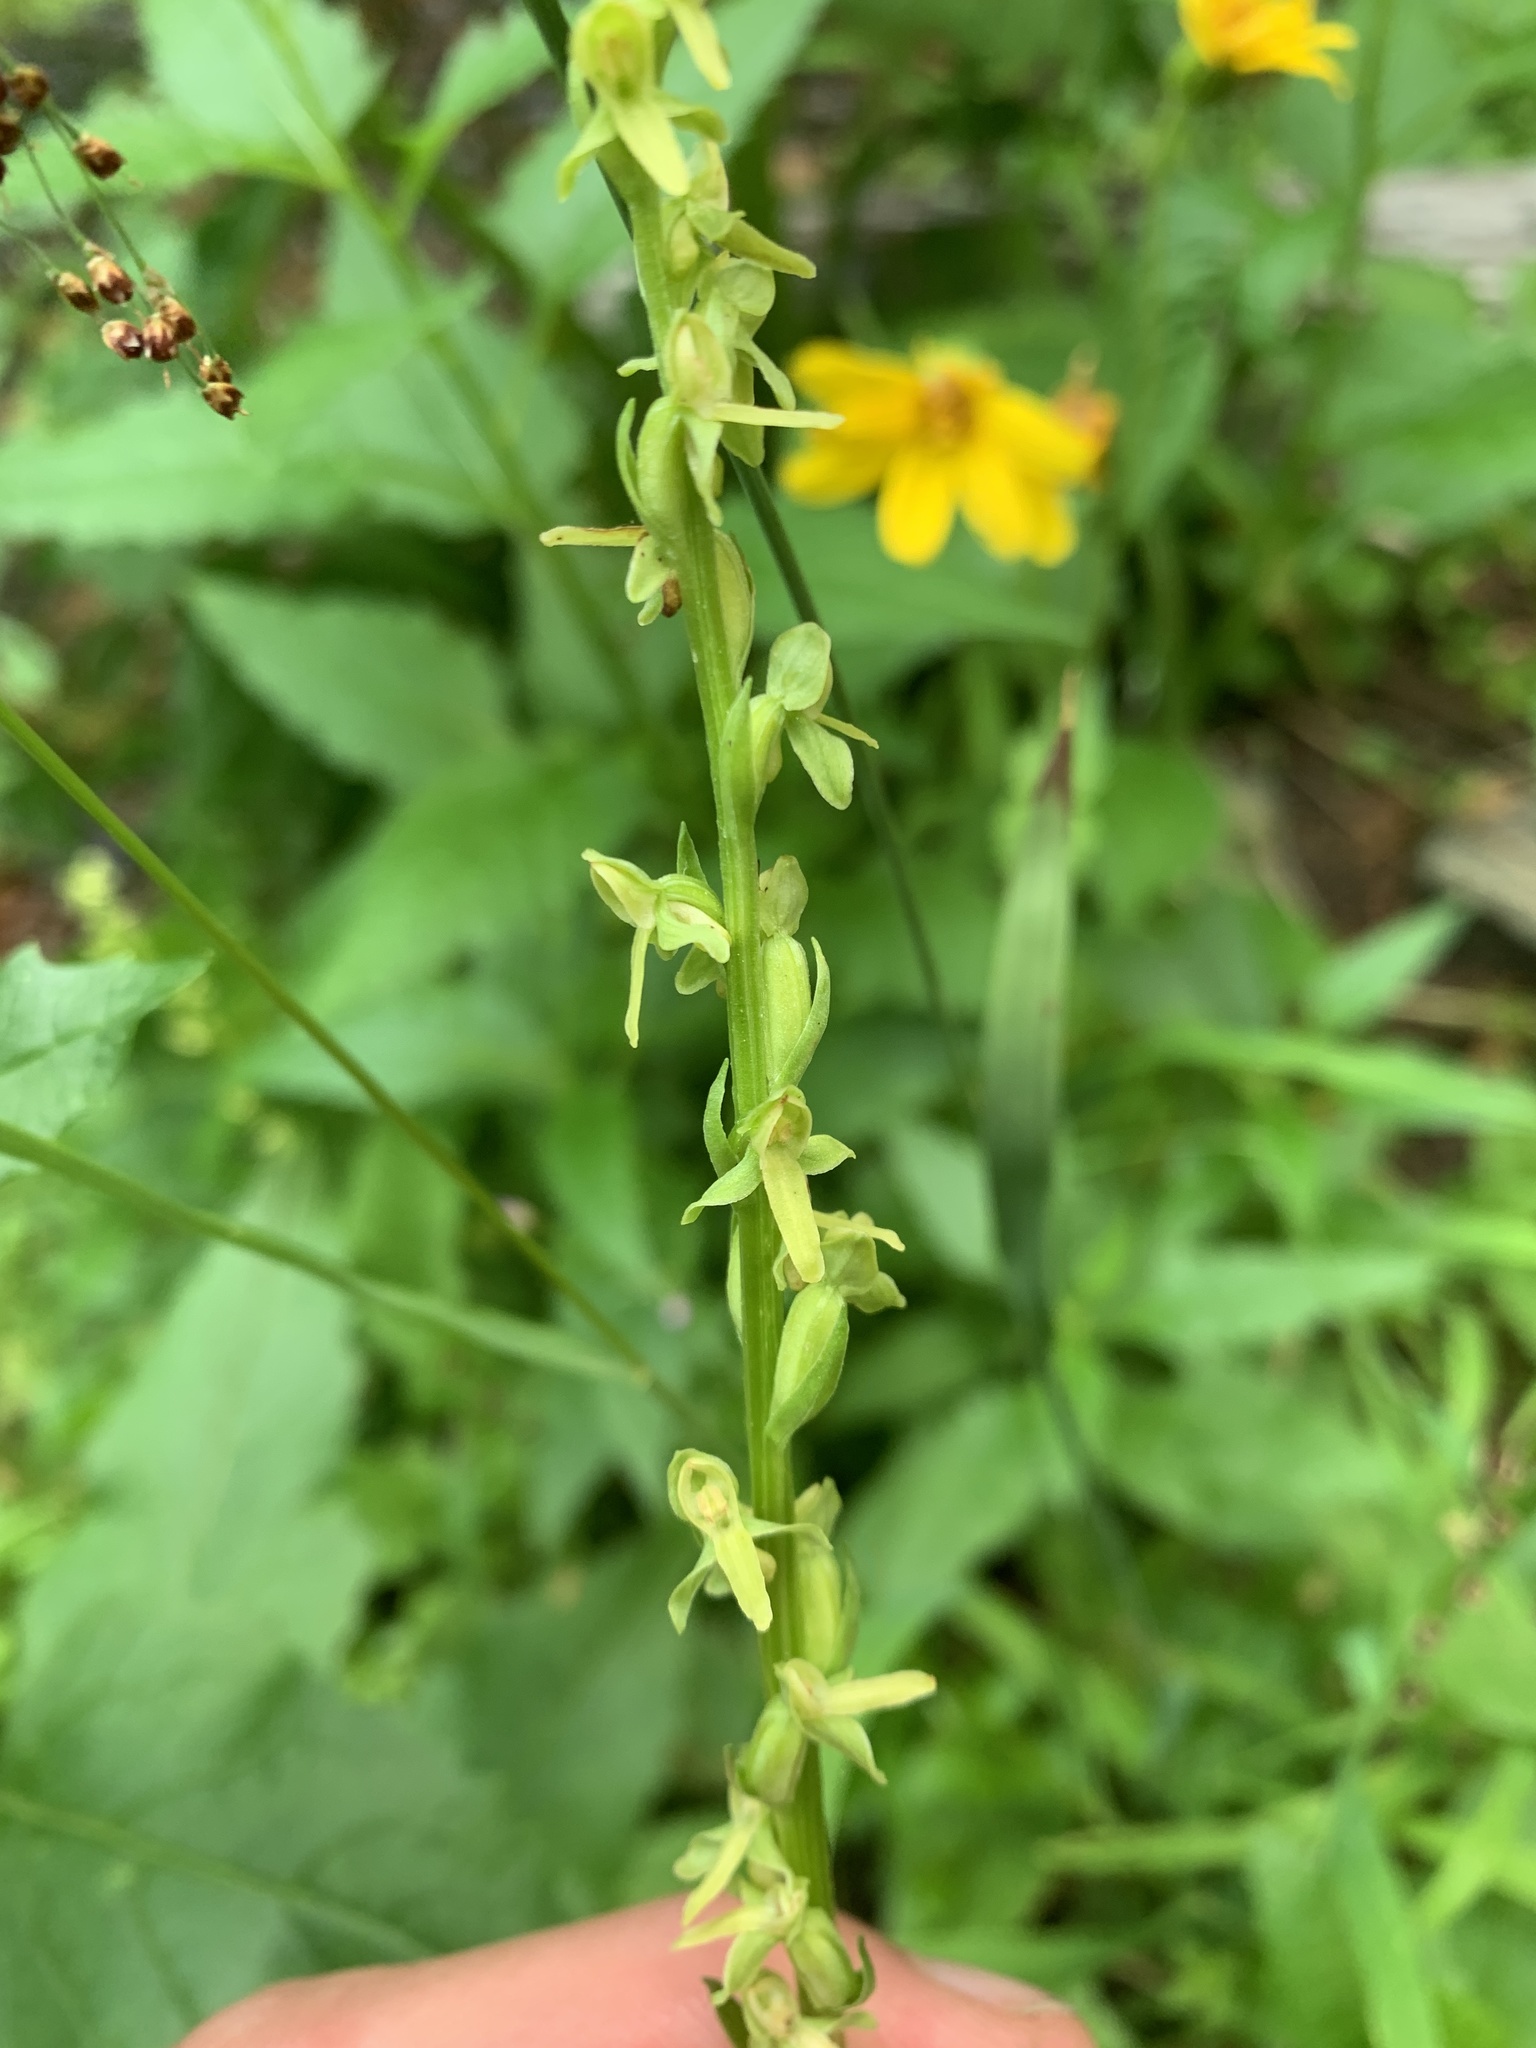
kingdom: Plantae
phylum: Tracheophyta
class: Liliopsida
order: Asparagales
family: Orchidaceae
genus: Platanthera
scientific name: Platanthera stricta
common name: Slender bog orchid
